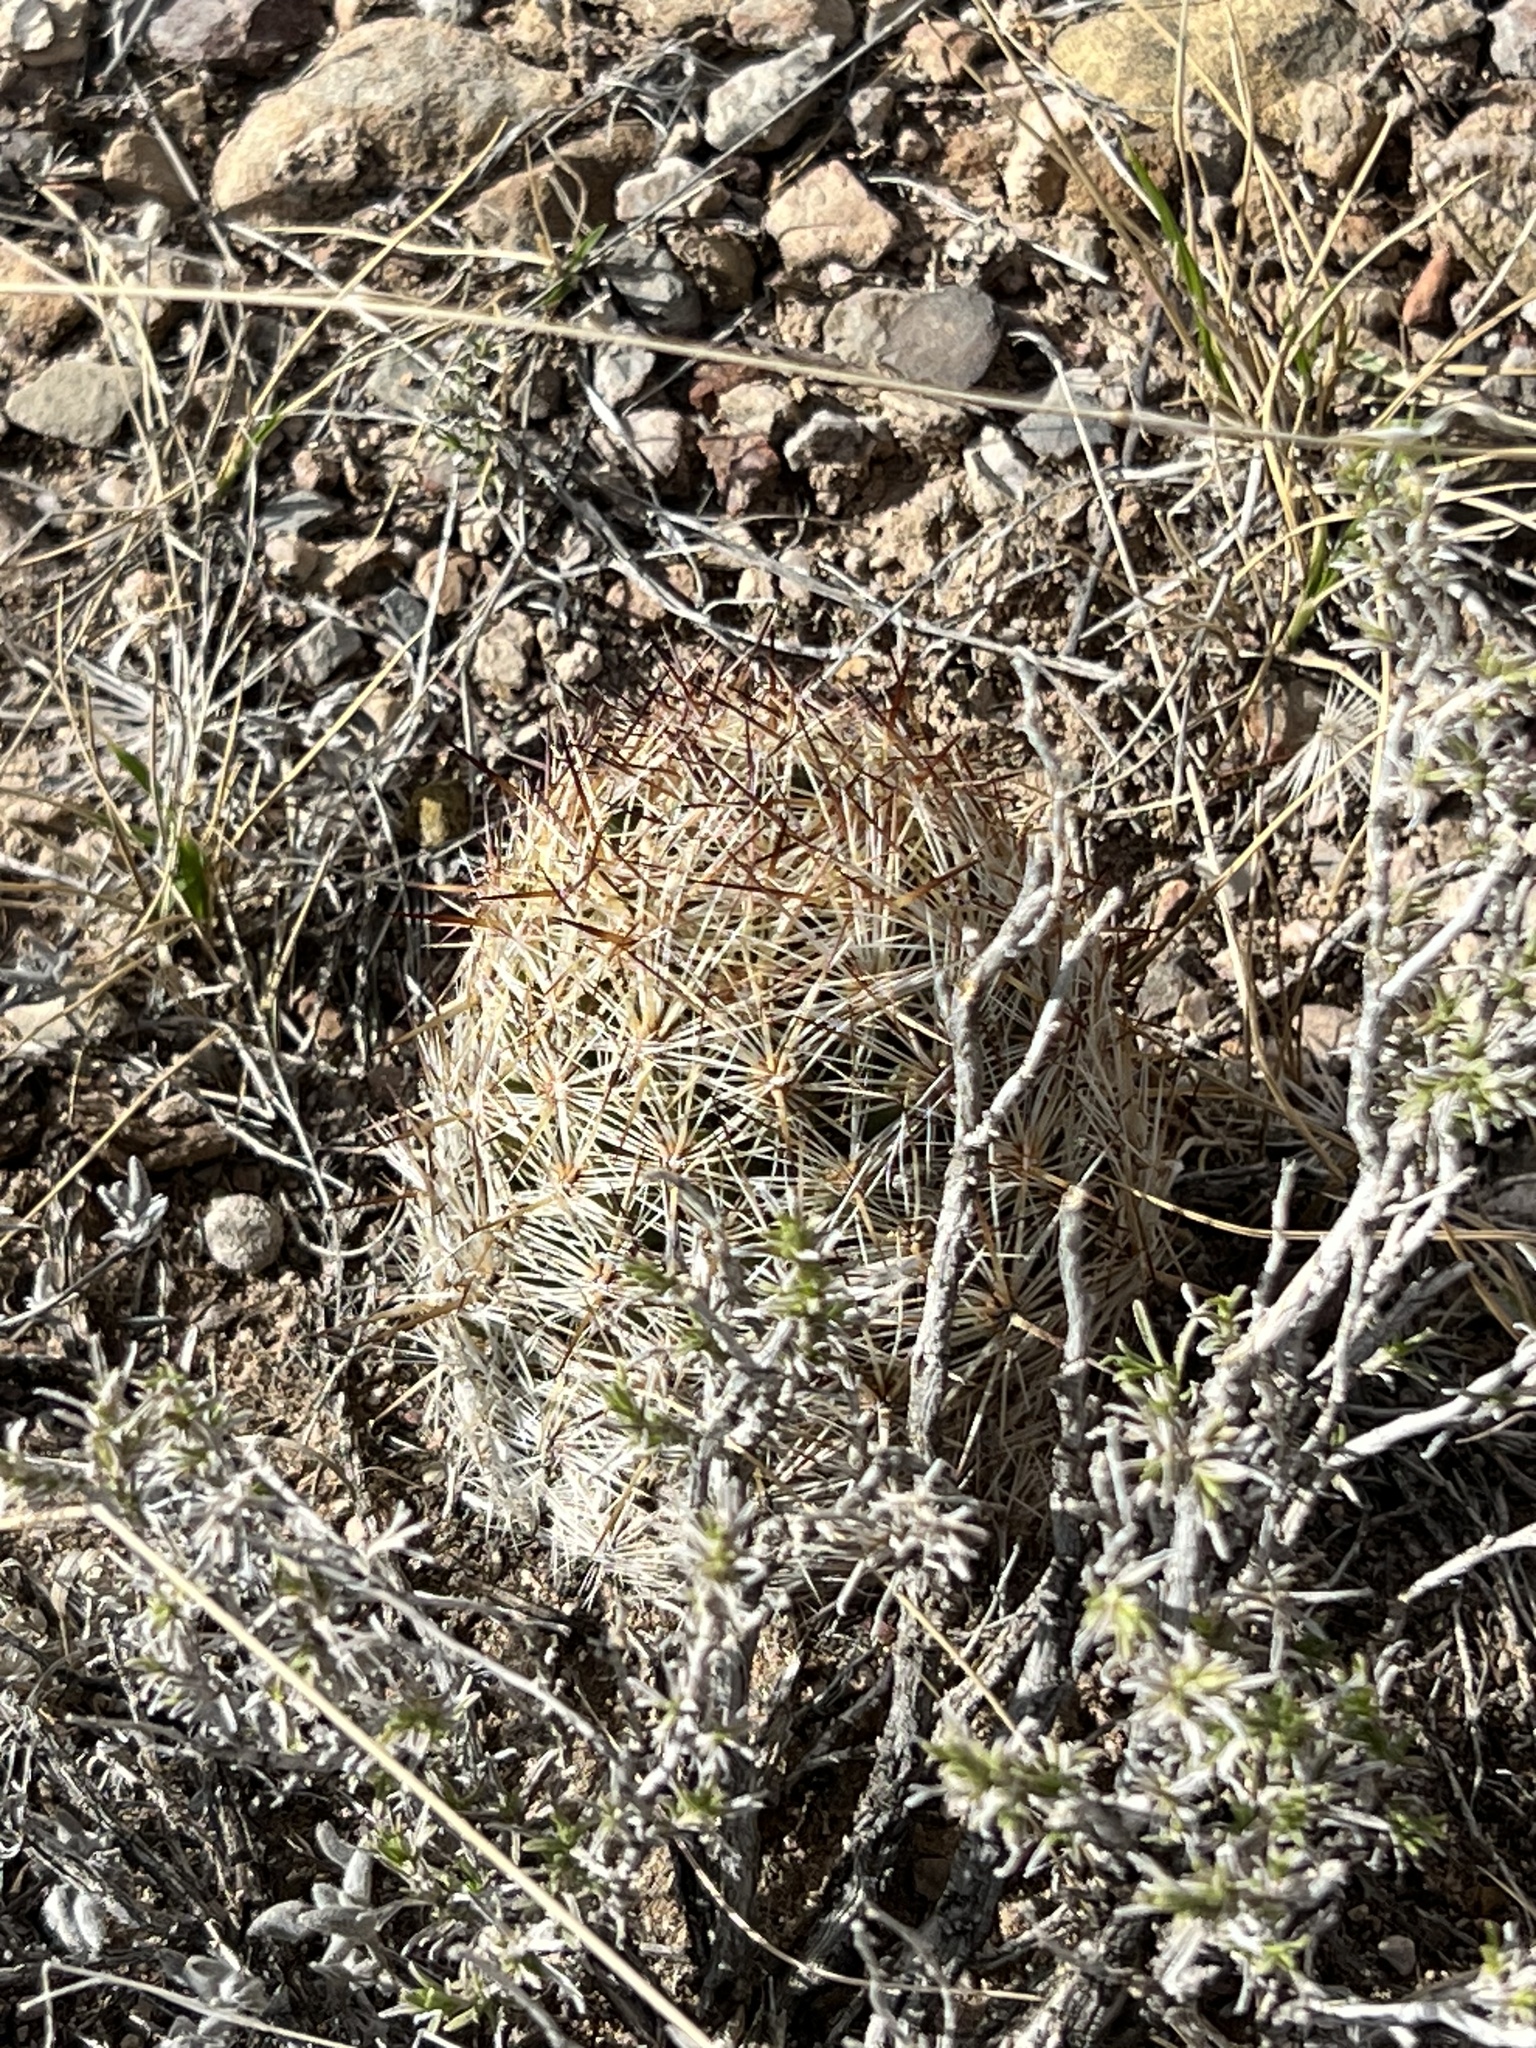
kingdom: Plantae
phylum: Tracheophyta
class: Magnoliopsida
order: Caryophyllales
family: Cactaceae
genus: Pelecyphora
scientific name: Pelecyphora vivipara
